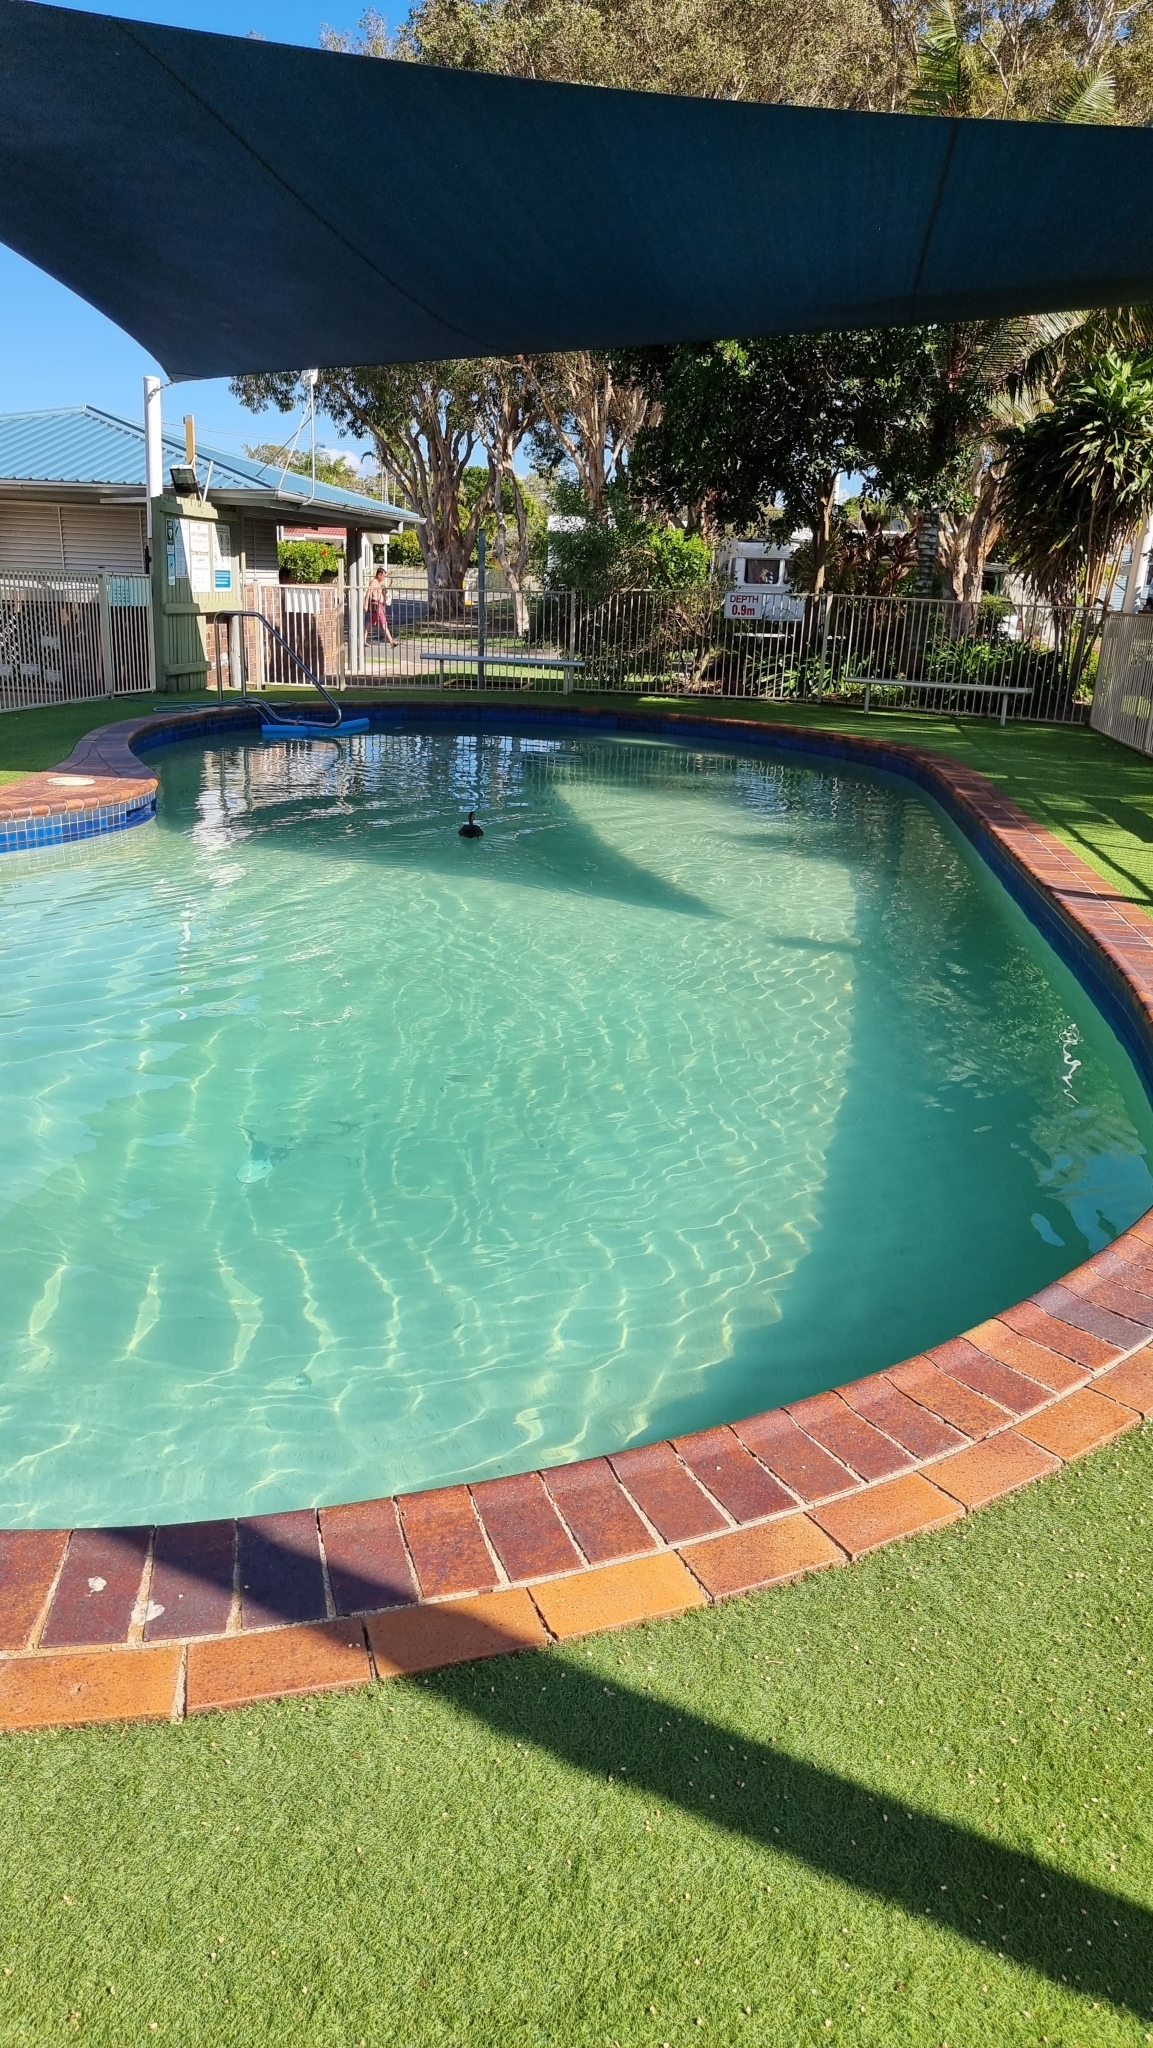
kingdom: Animalia
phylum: Chordata
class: Aves
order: Anseriformes
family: Anatidae
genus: Anas
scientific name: Anas superciliosa
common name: Pacific black duck
